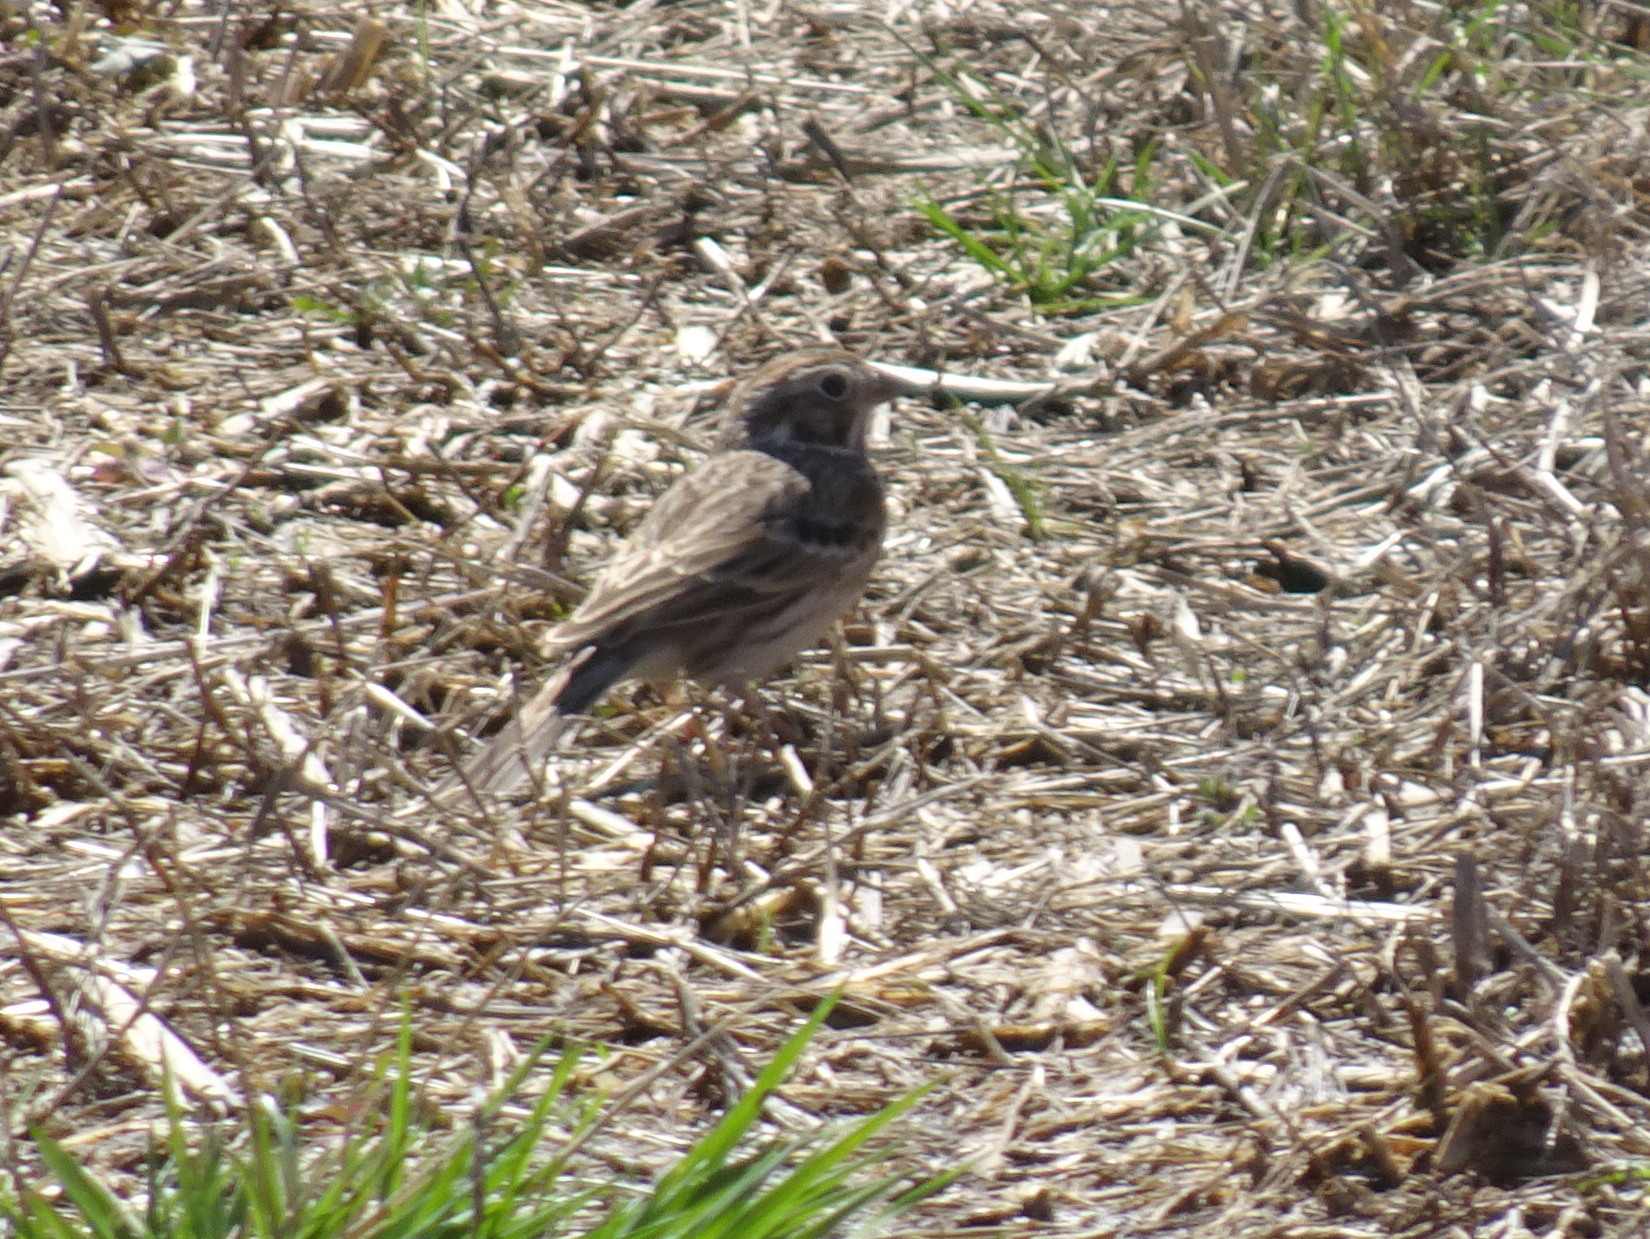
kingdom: Animalia
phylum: Chordata
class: Aves
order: Passeriformes
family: Passerellidae
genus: Pooecetes
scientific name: Pooecetes gramineus
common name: Vesper sparrow
